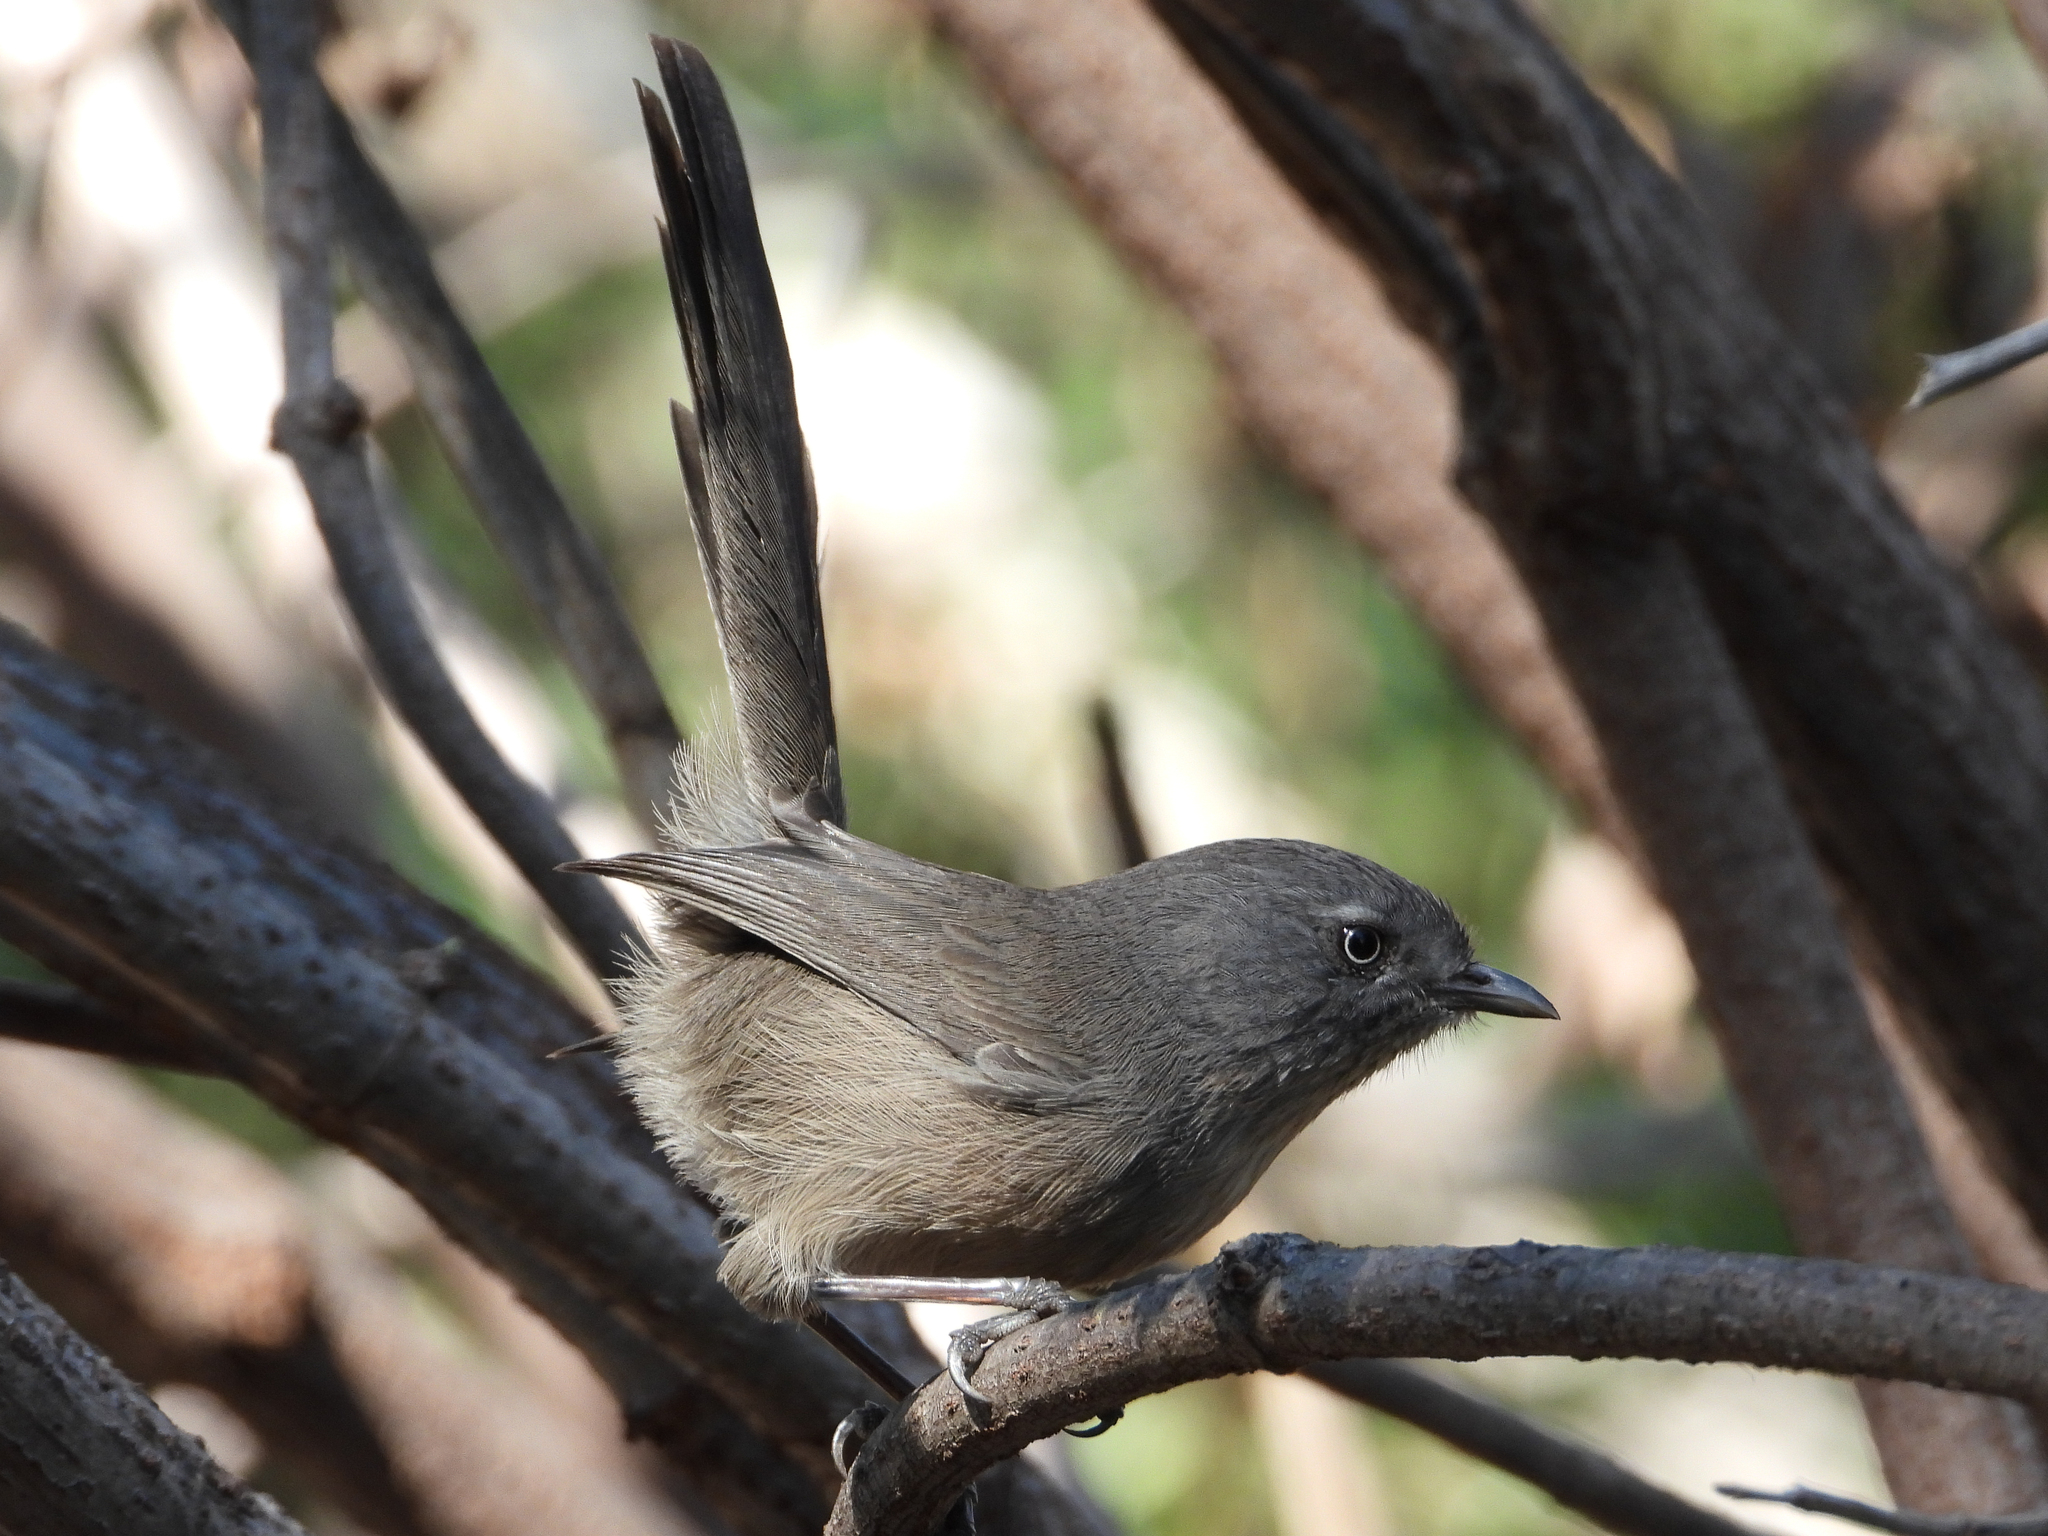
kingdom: Animalia
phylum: Chordata
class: Aves
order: Passeriformes
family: Sylviidae
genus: Chamaea
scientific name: Chamaea fasciata
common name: Wrentit
